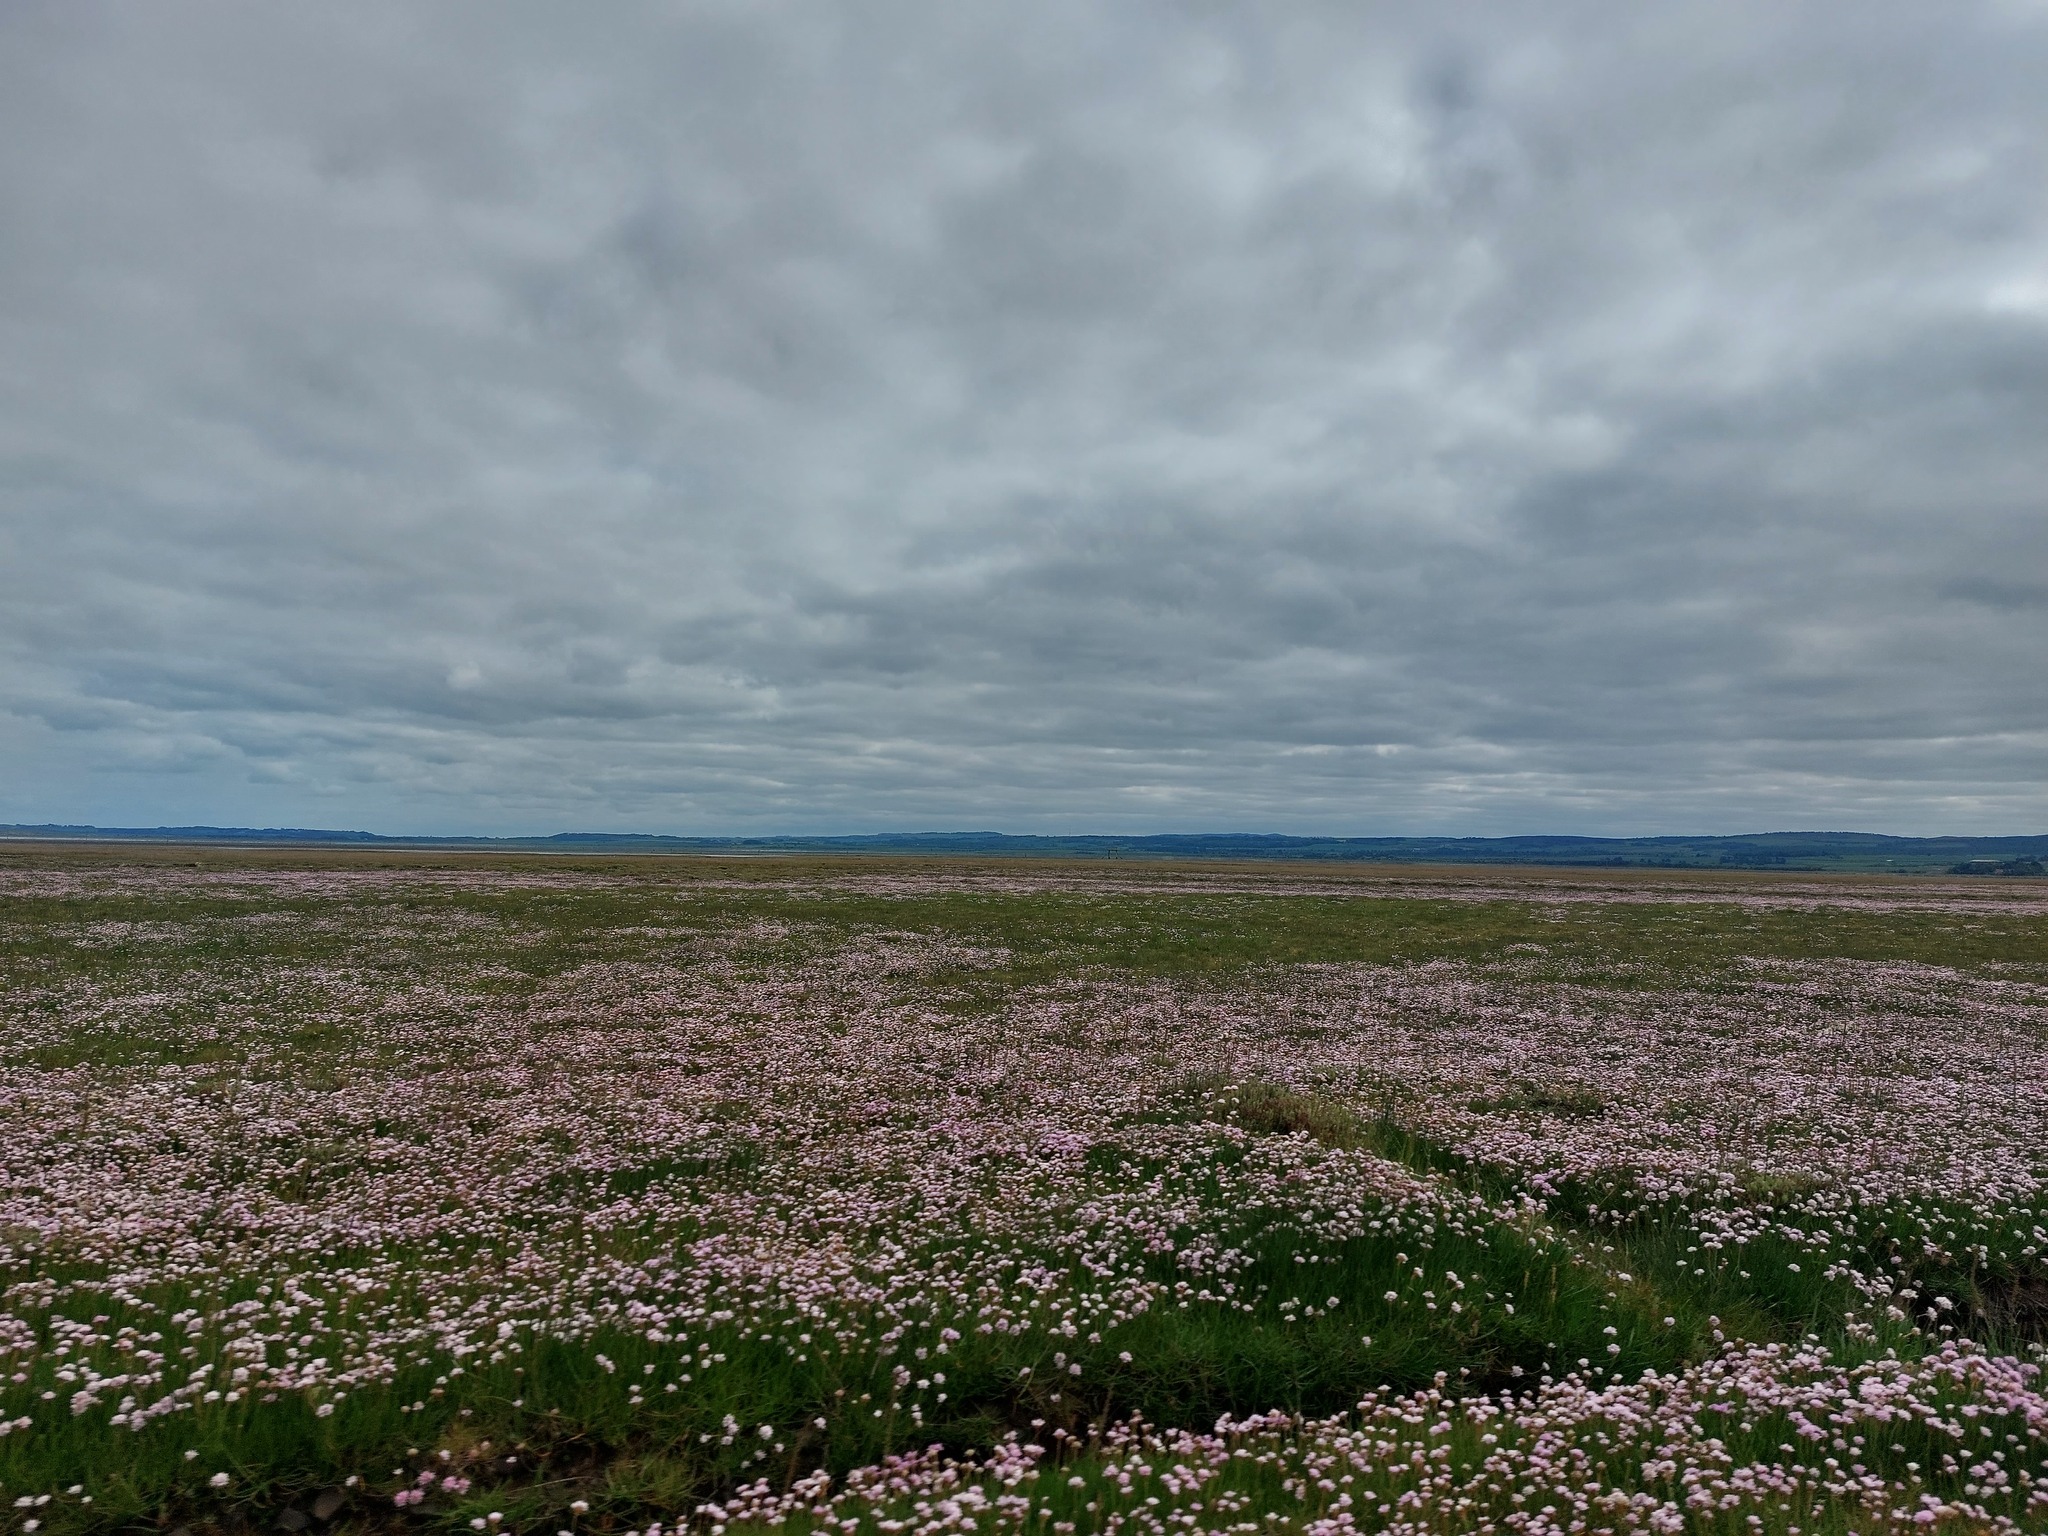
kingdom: Plantae
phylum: Tracheophyta
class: Magnoliopsida
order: Caryophyllales
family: Plumbaginaceae
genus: Armeria
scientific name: Armeria maritima
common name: Thrift
